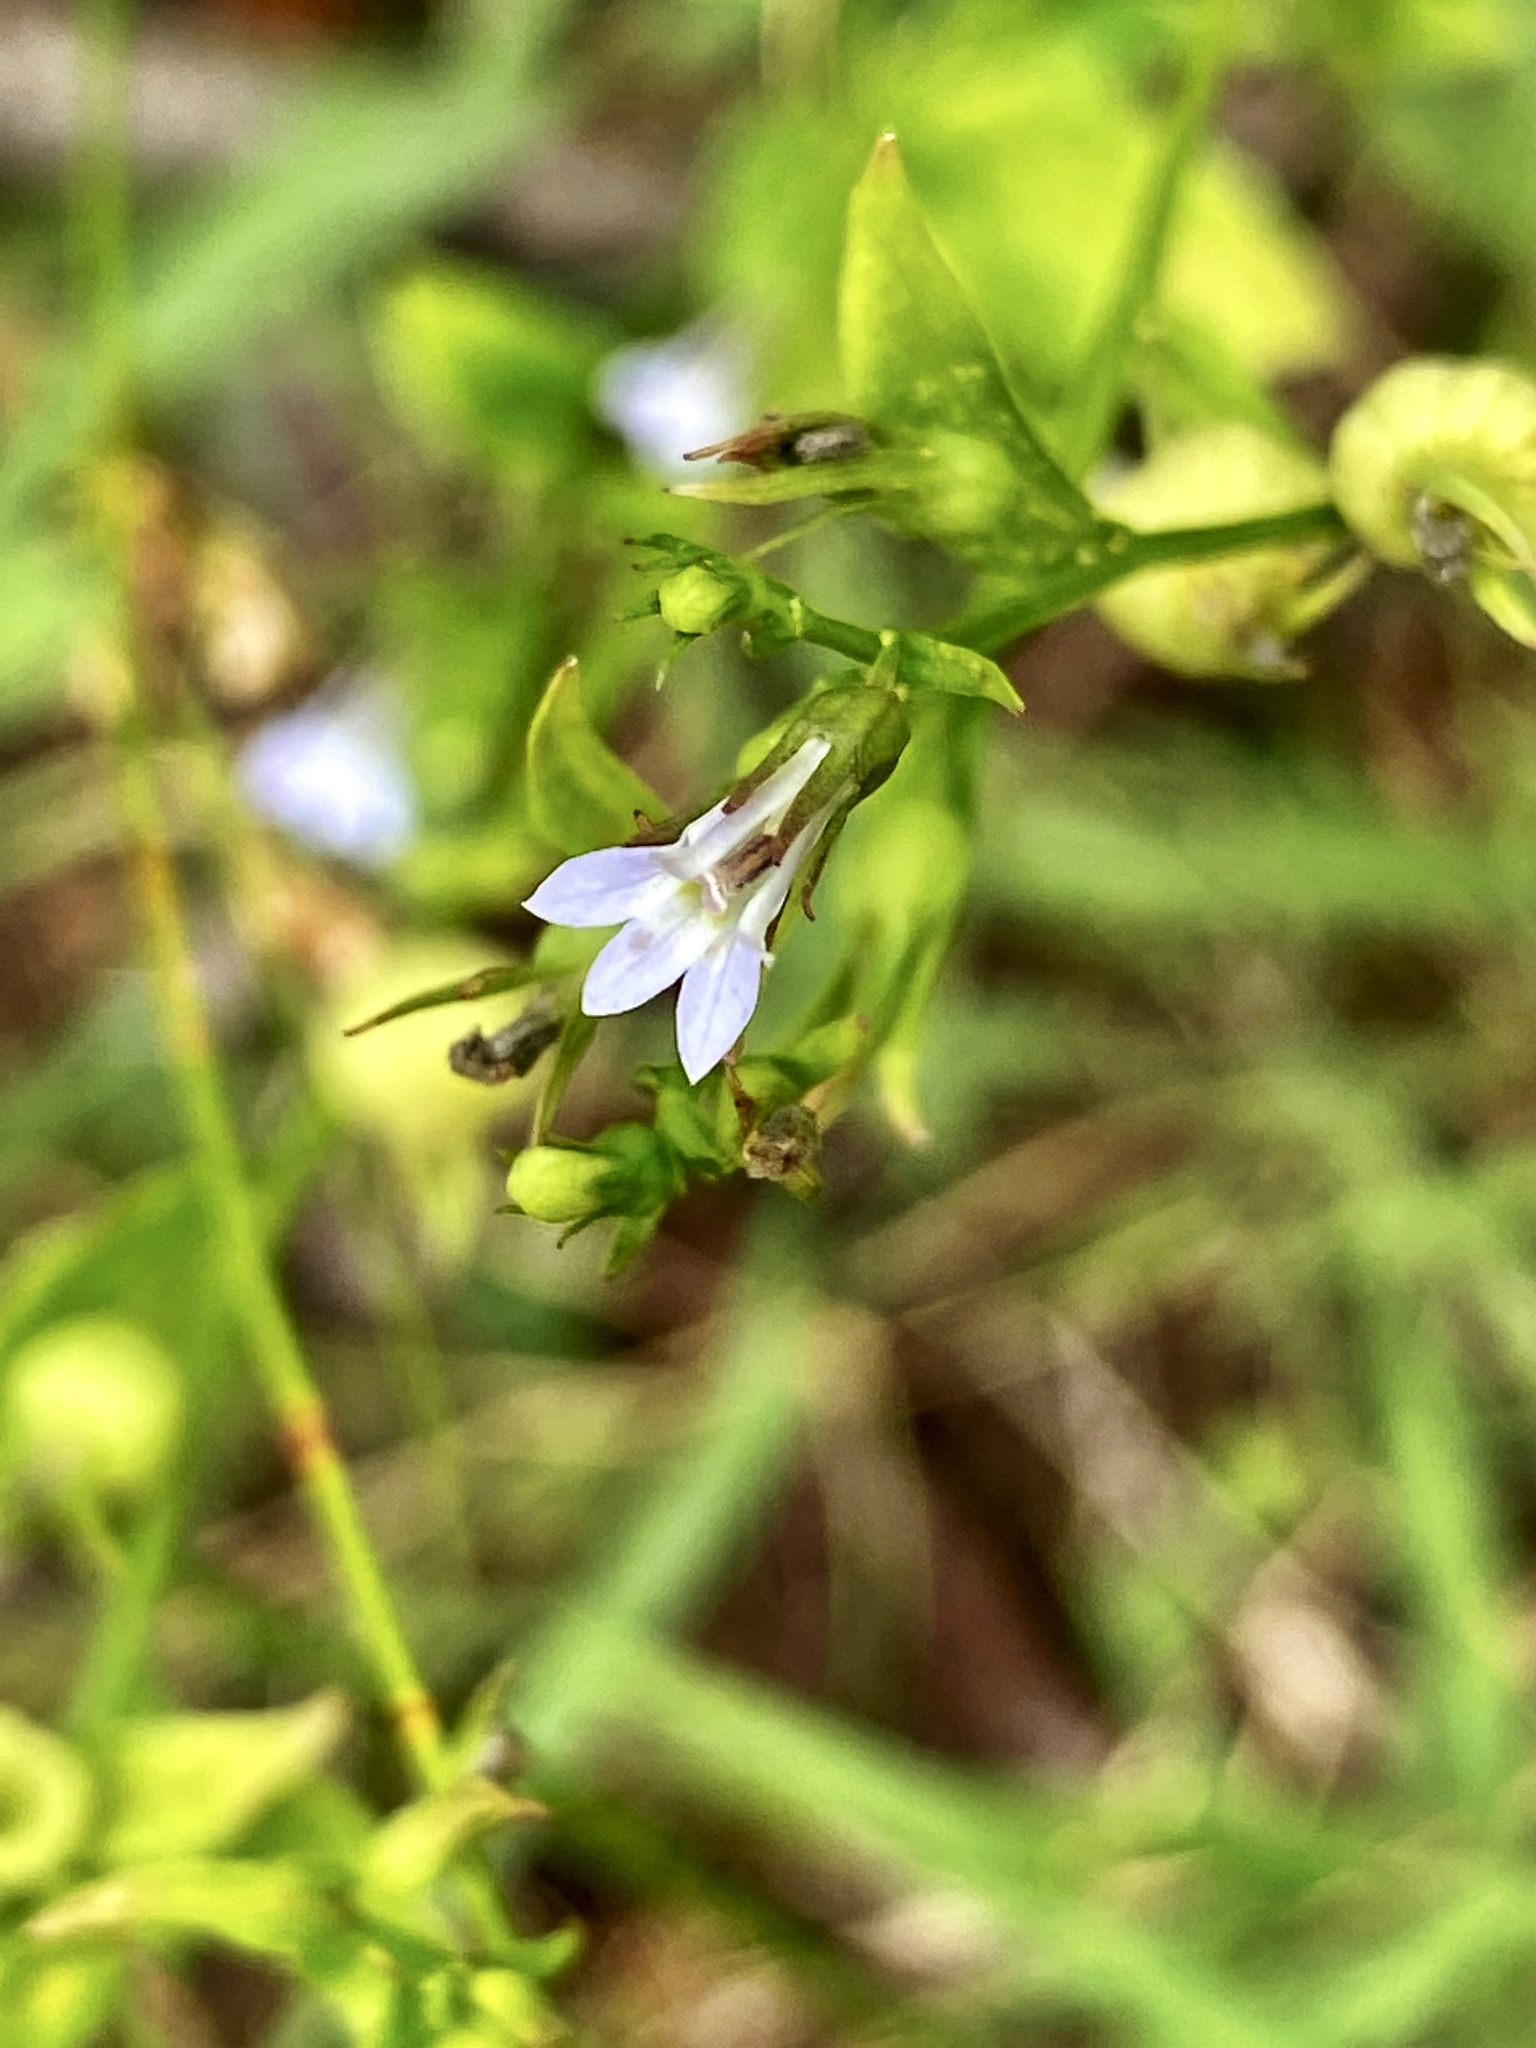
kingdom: Plantae
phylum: Tracheophyta
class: Magnoliopsida
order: Asterales
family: Campanulaceae
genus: Lobelia
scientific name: Lobelia inflata
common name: Indian tobacco
